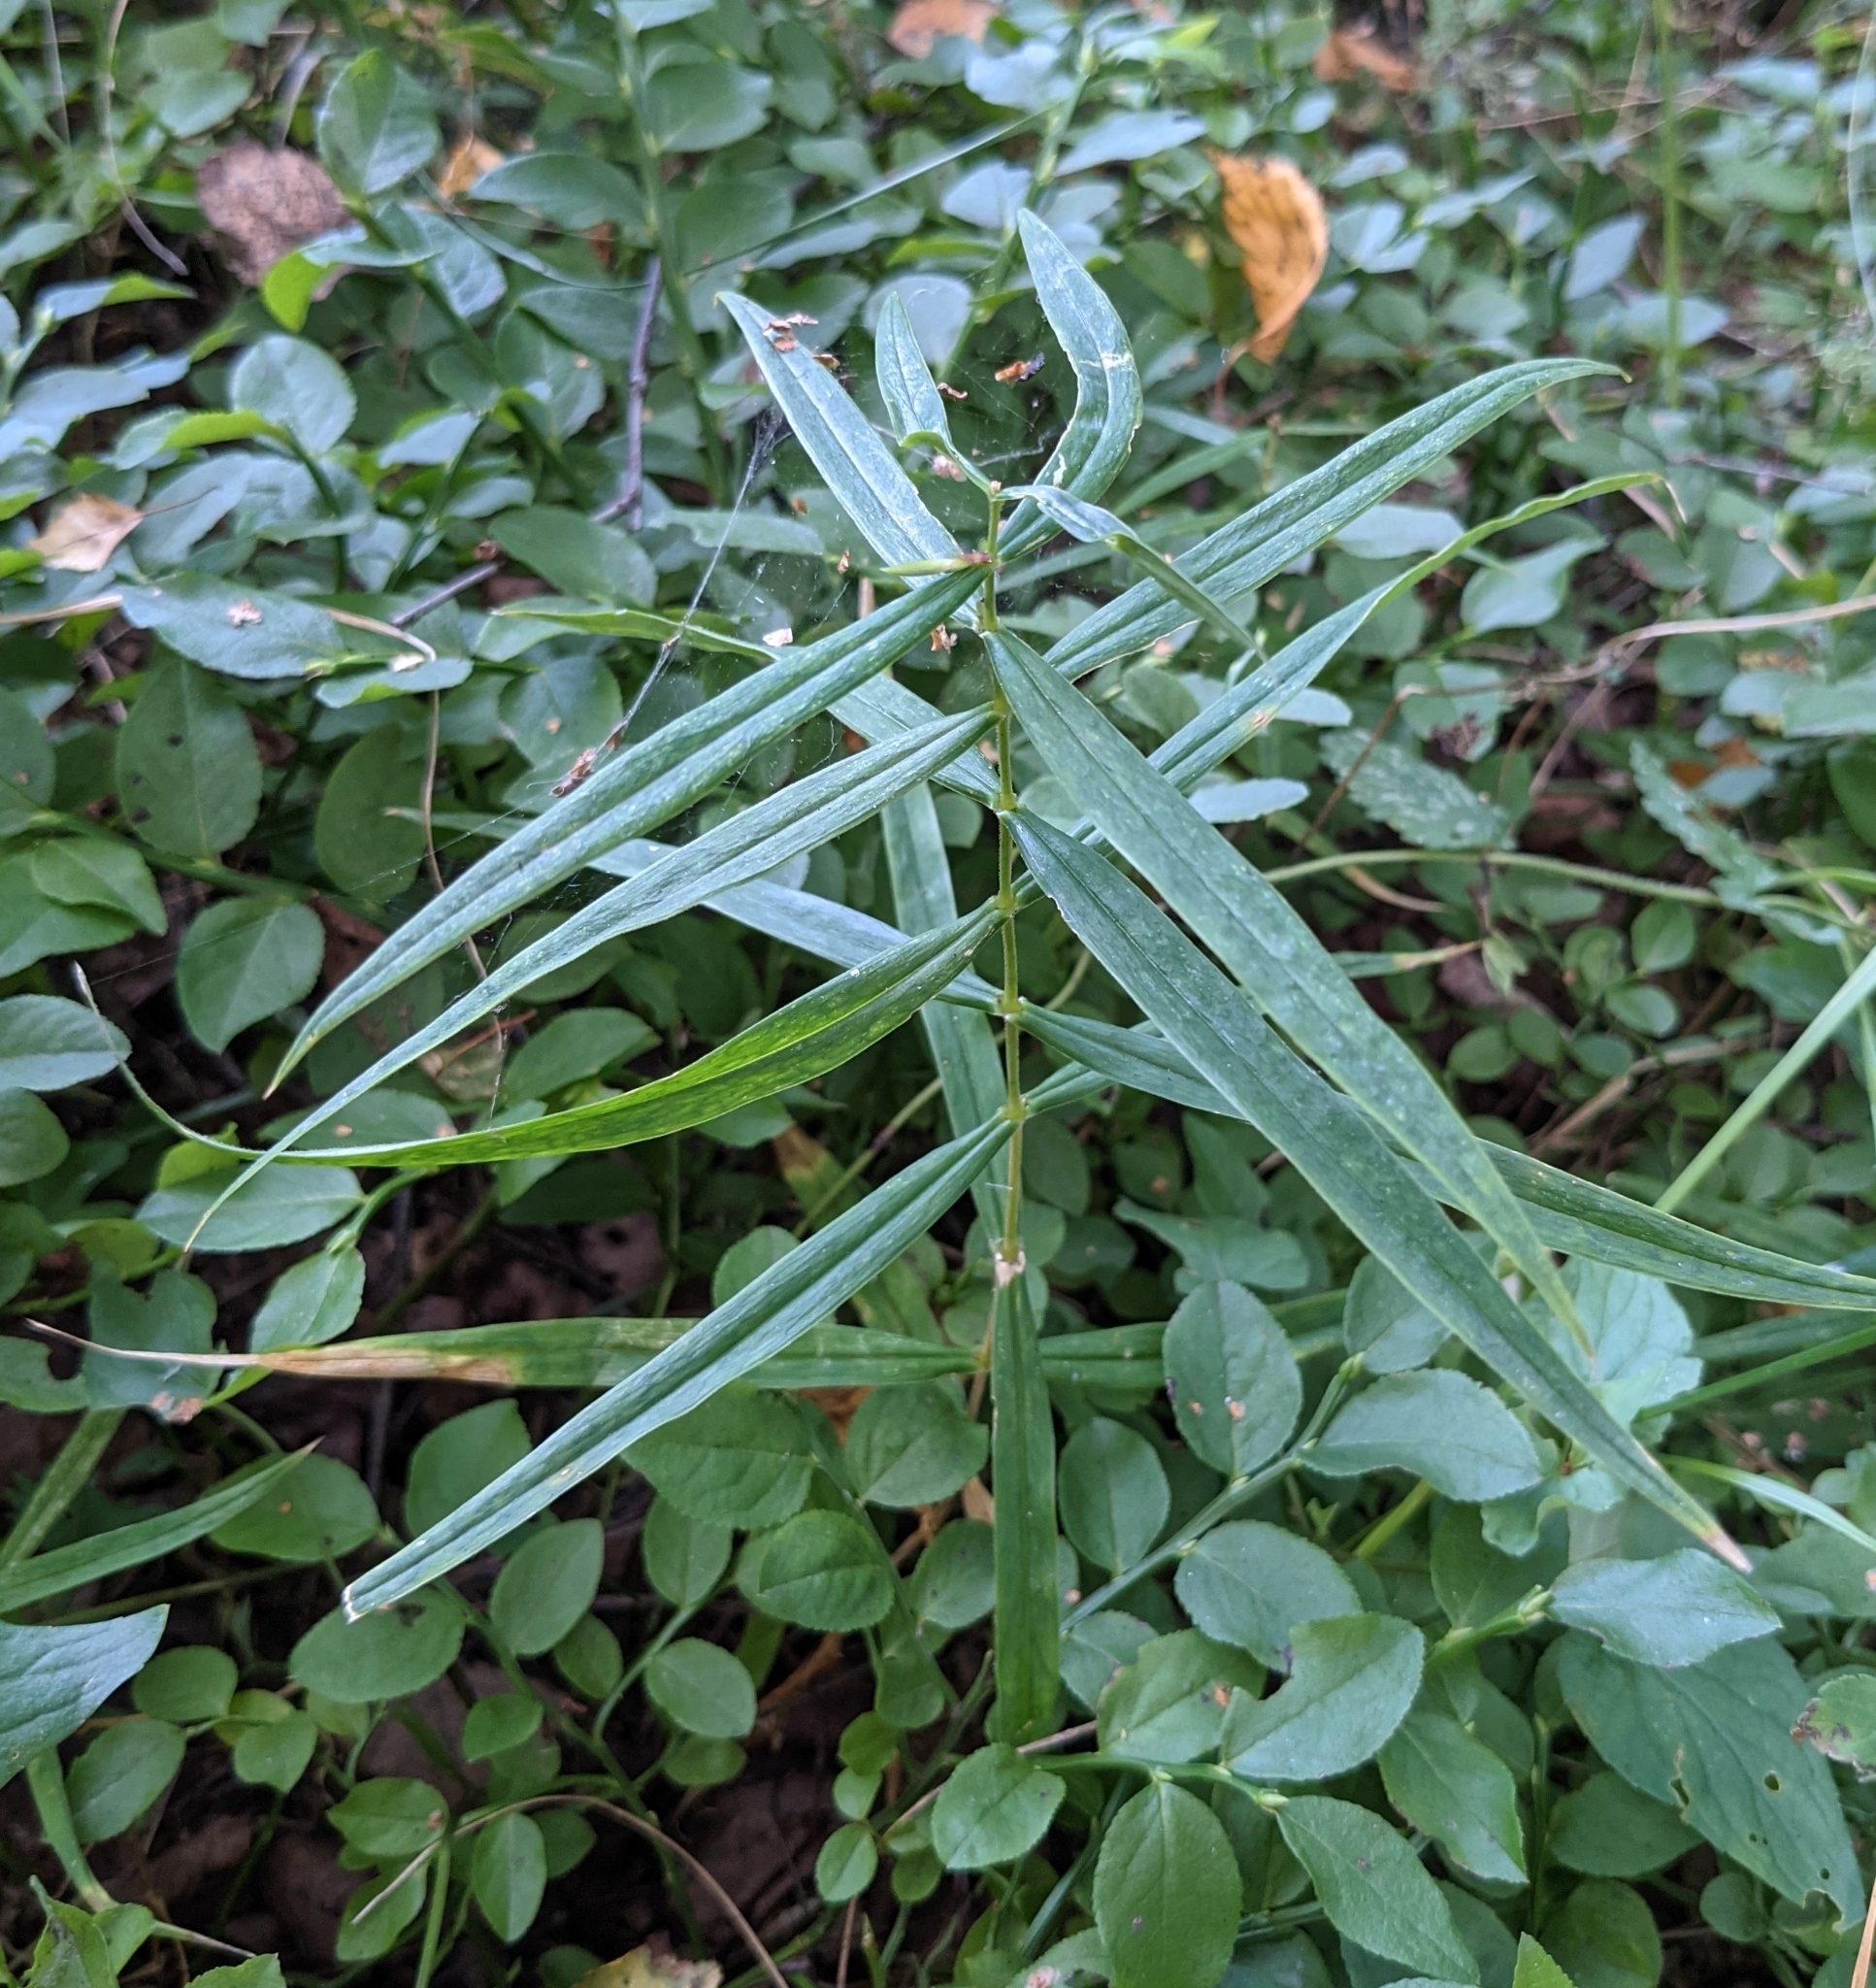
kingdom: Plantae
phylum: Tracheophyta
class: Magnoliopsida
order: Caryophyllales
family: Caryophyllaceae
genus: Rabelera
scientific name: Rabelera holostea
